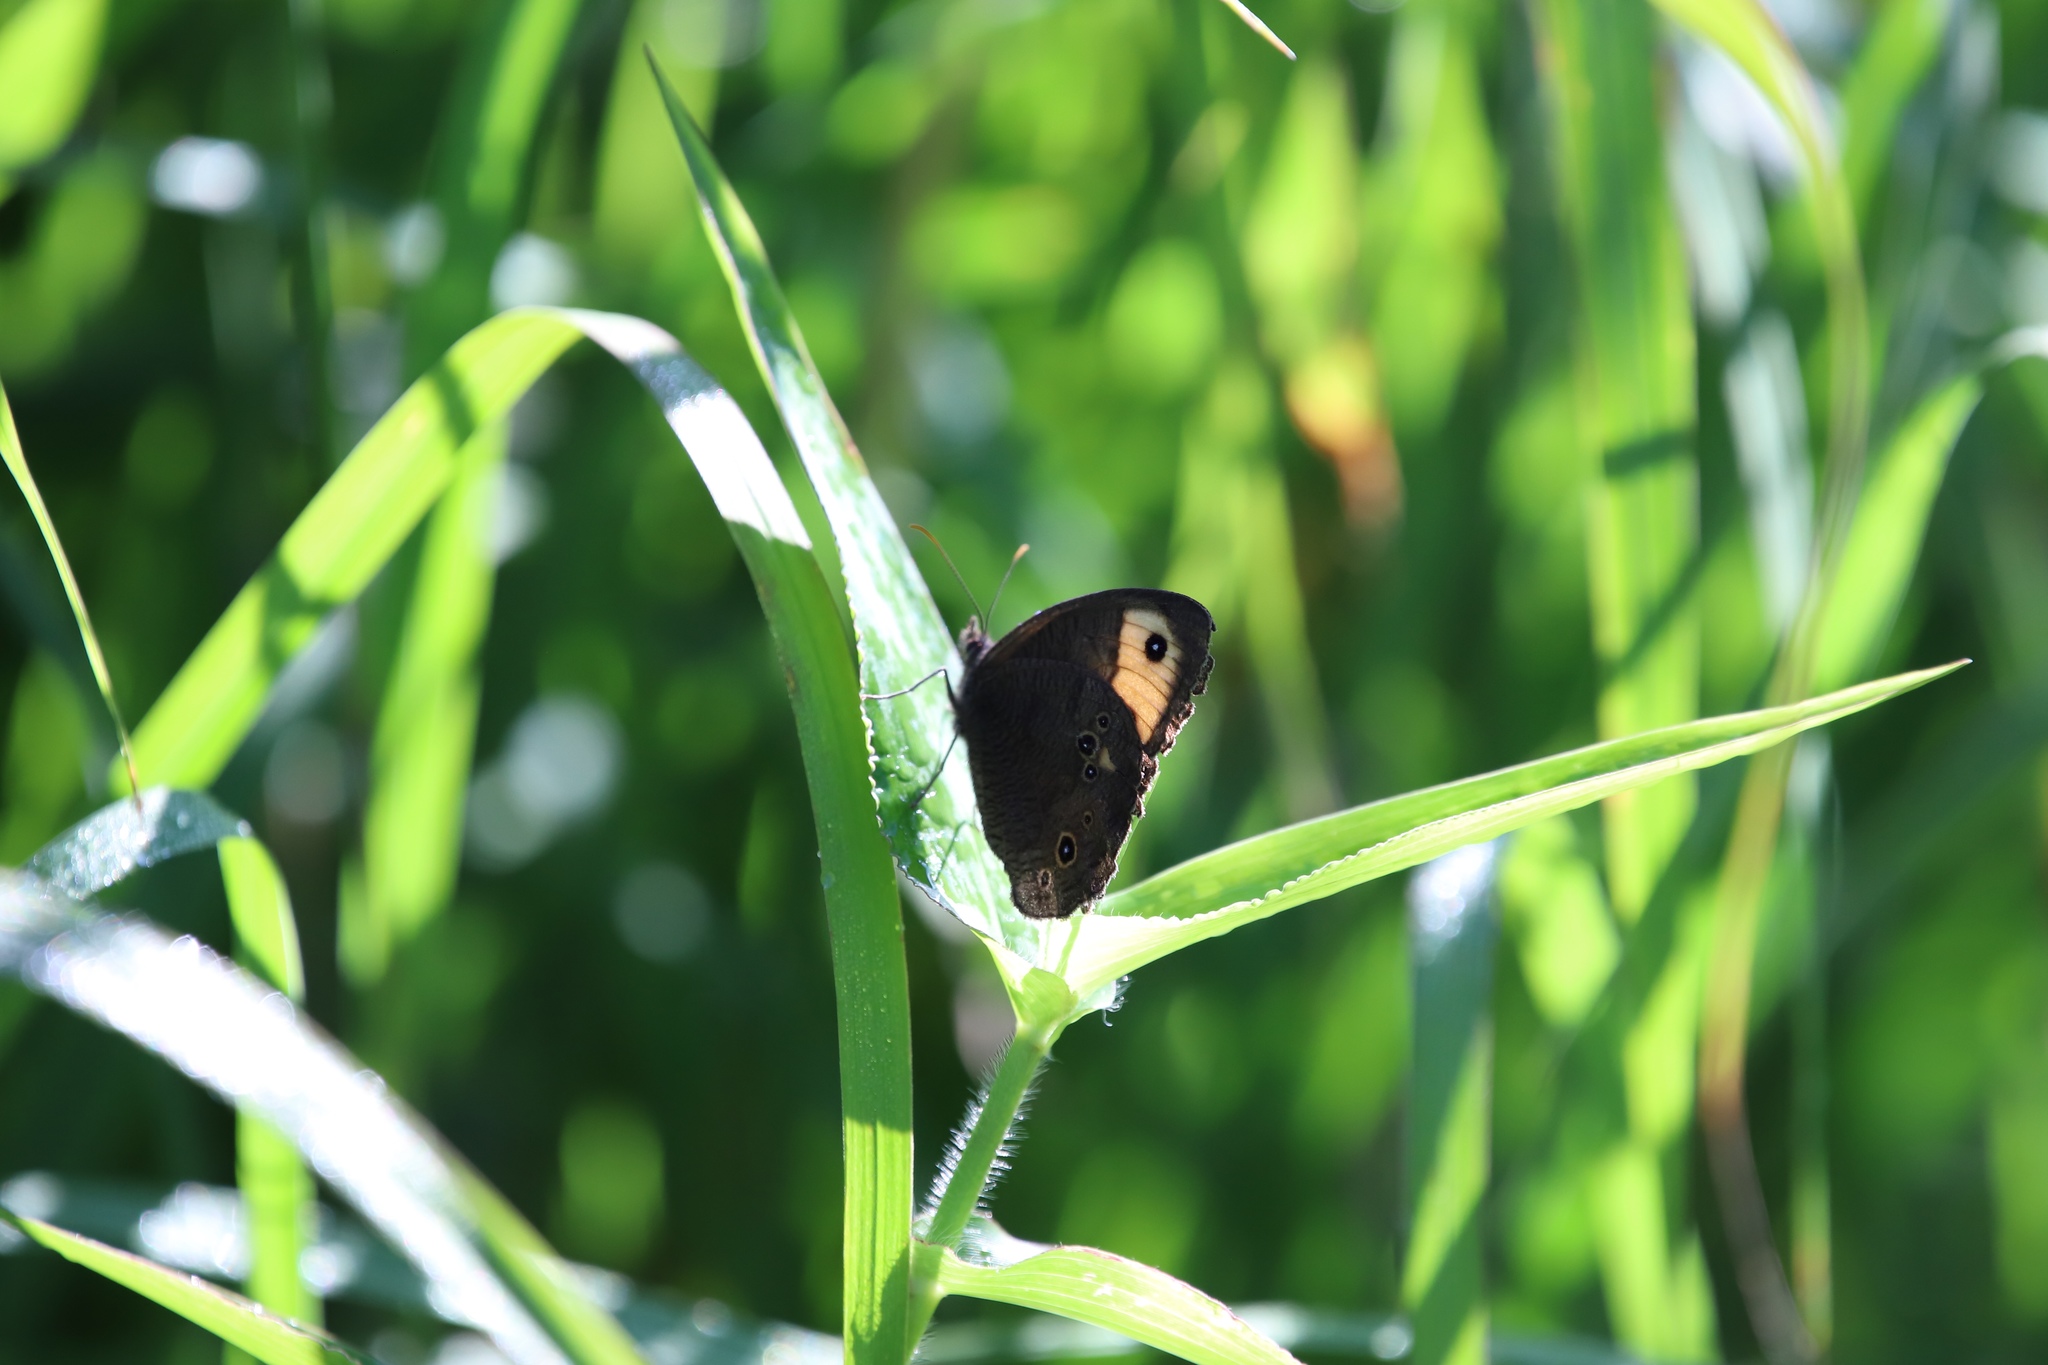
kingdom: Animalia
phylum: Arthropoda
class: Insecta
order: Lepidoptera
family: Nymphalidae
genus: Cercyonis
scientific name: Cercyonis pegala
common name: Common wood-nymph
